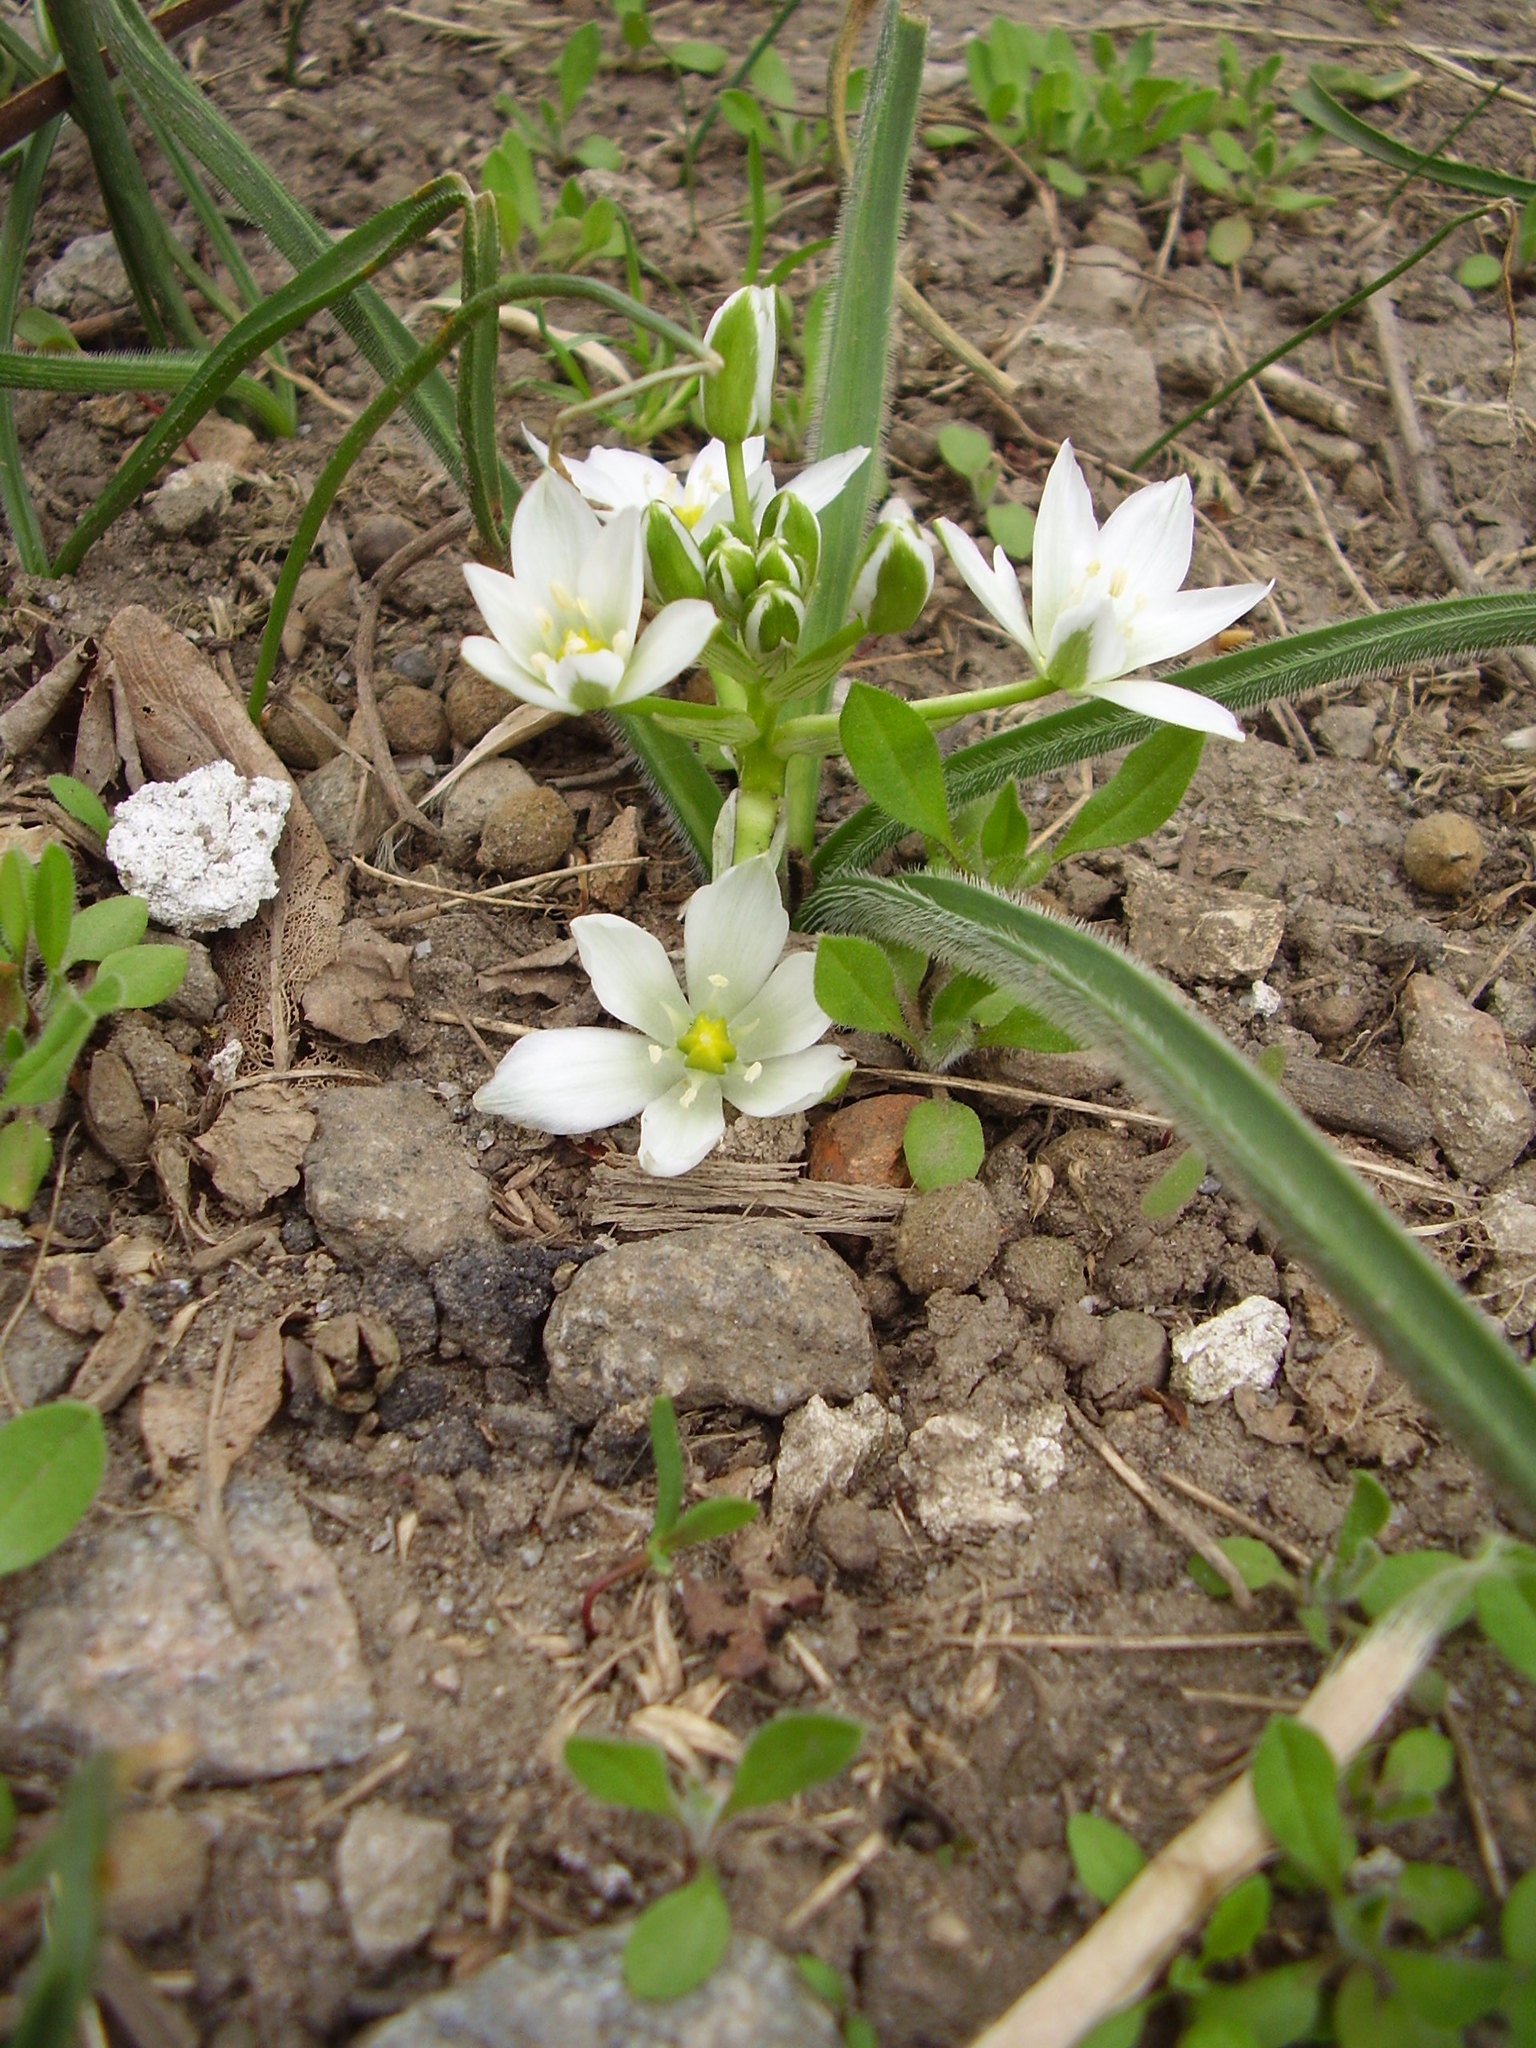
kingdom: Plantae
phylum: Tracheophyta
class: Liliopsida
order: Asparagales
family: Asparagaceae
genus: Ornithogalum
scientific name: Ornithogalum fimbriatum
